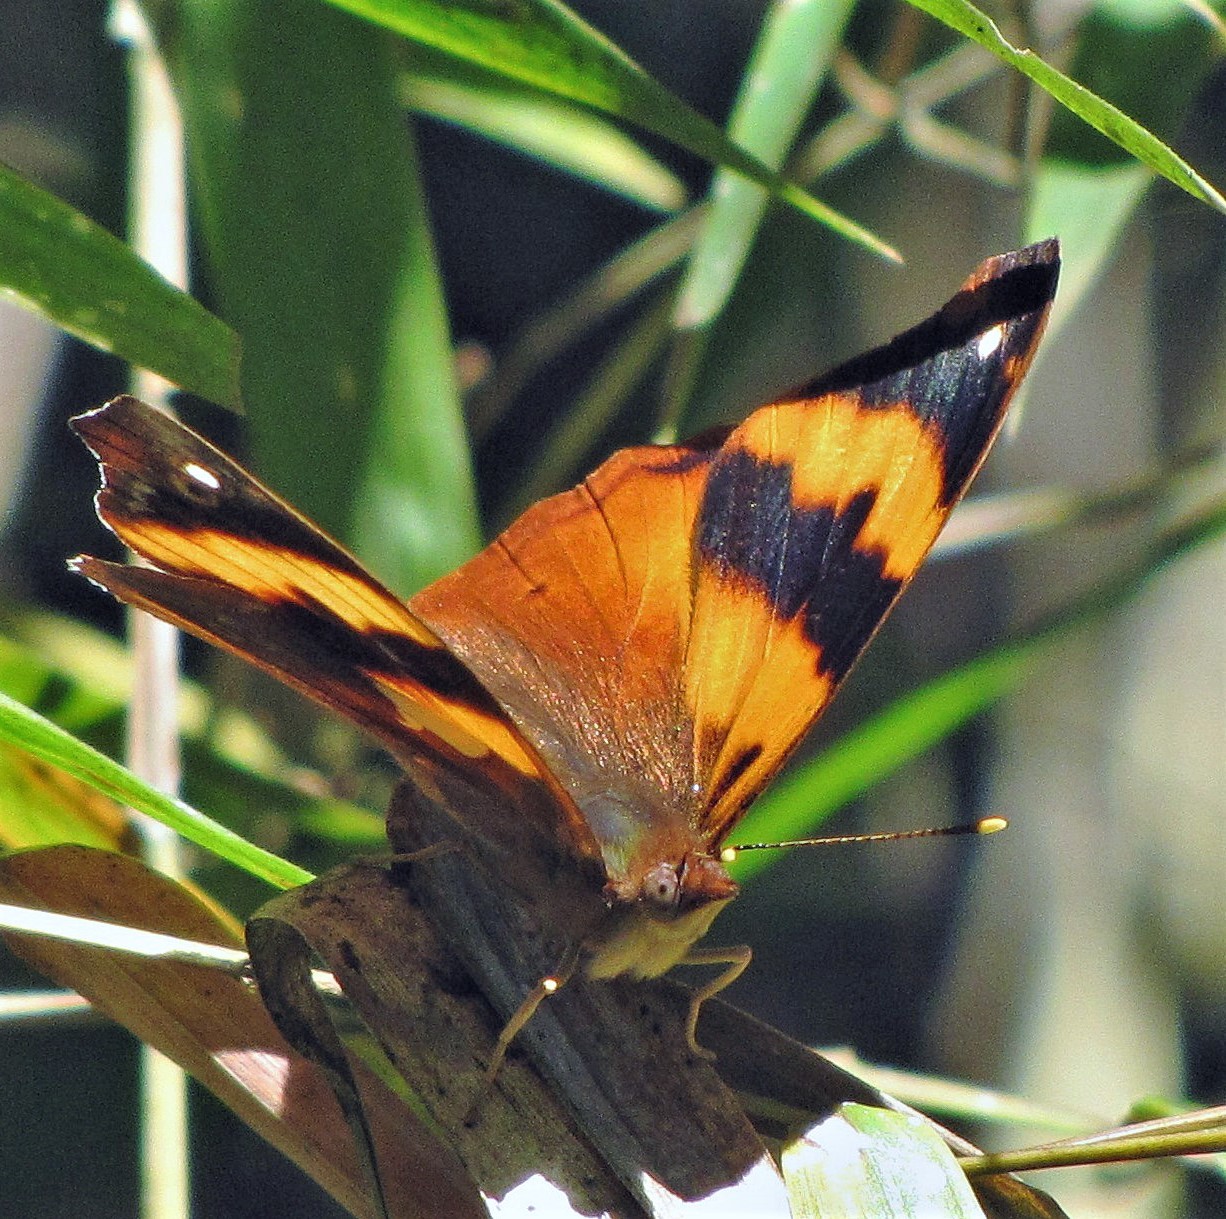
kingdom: Animalia
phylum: Arthropoda
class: Insecta
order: Lepidoptera
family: Nymphalidae
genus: Epiphile
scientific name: Epiphile hubneri
